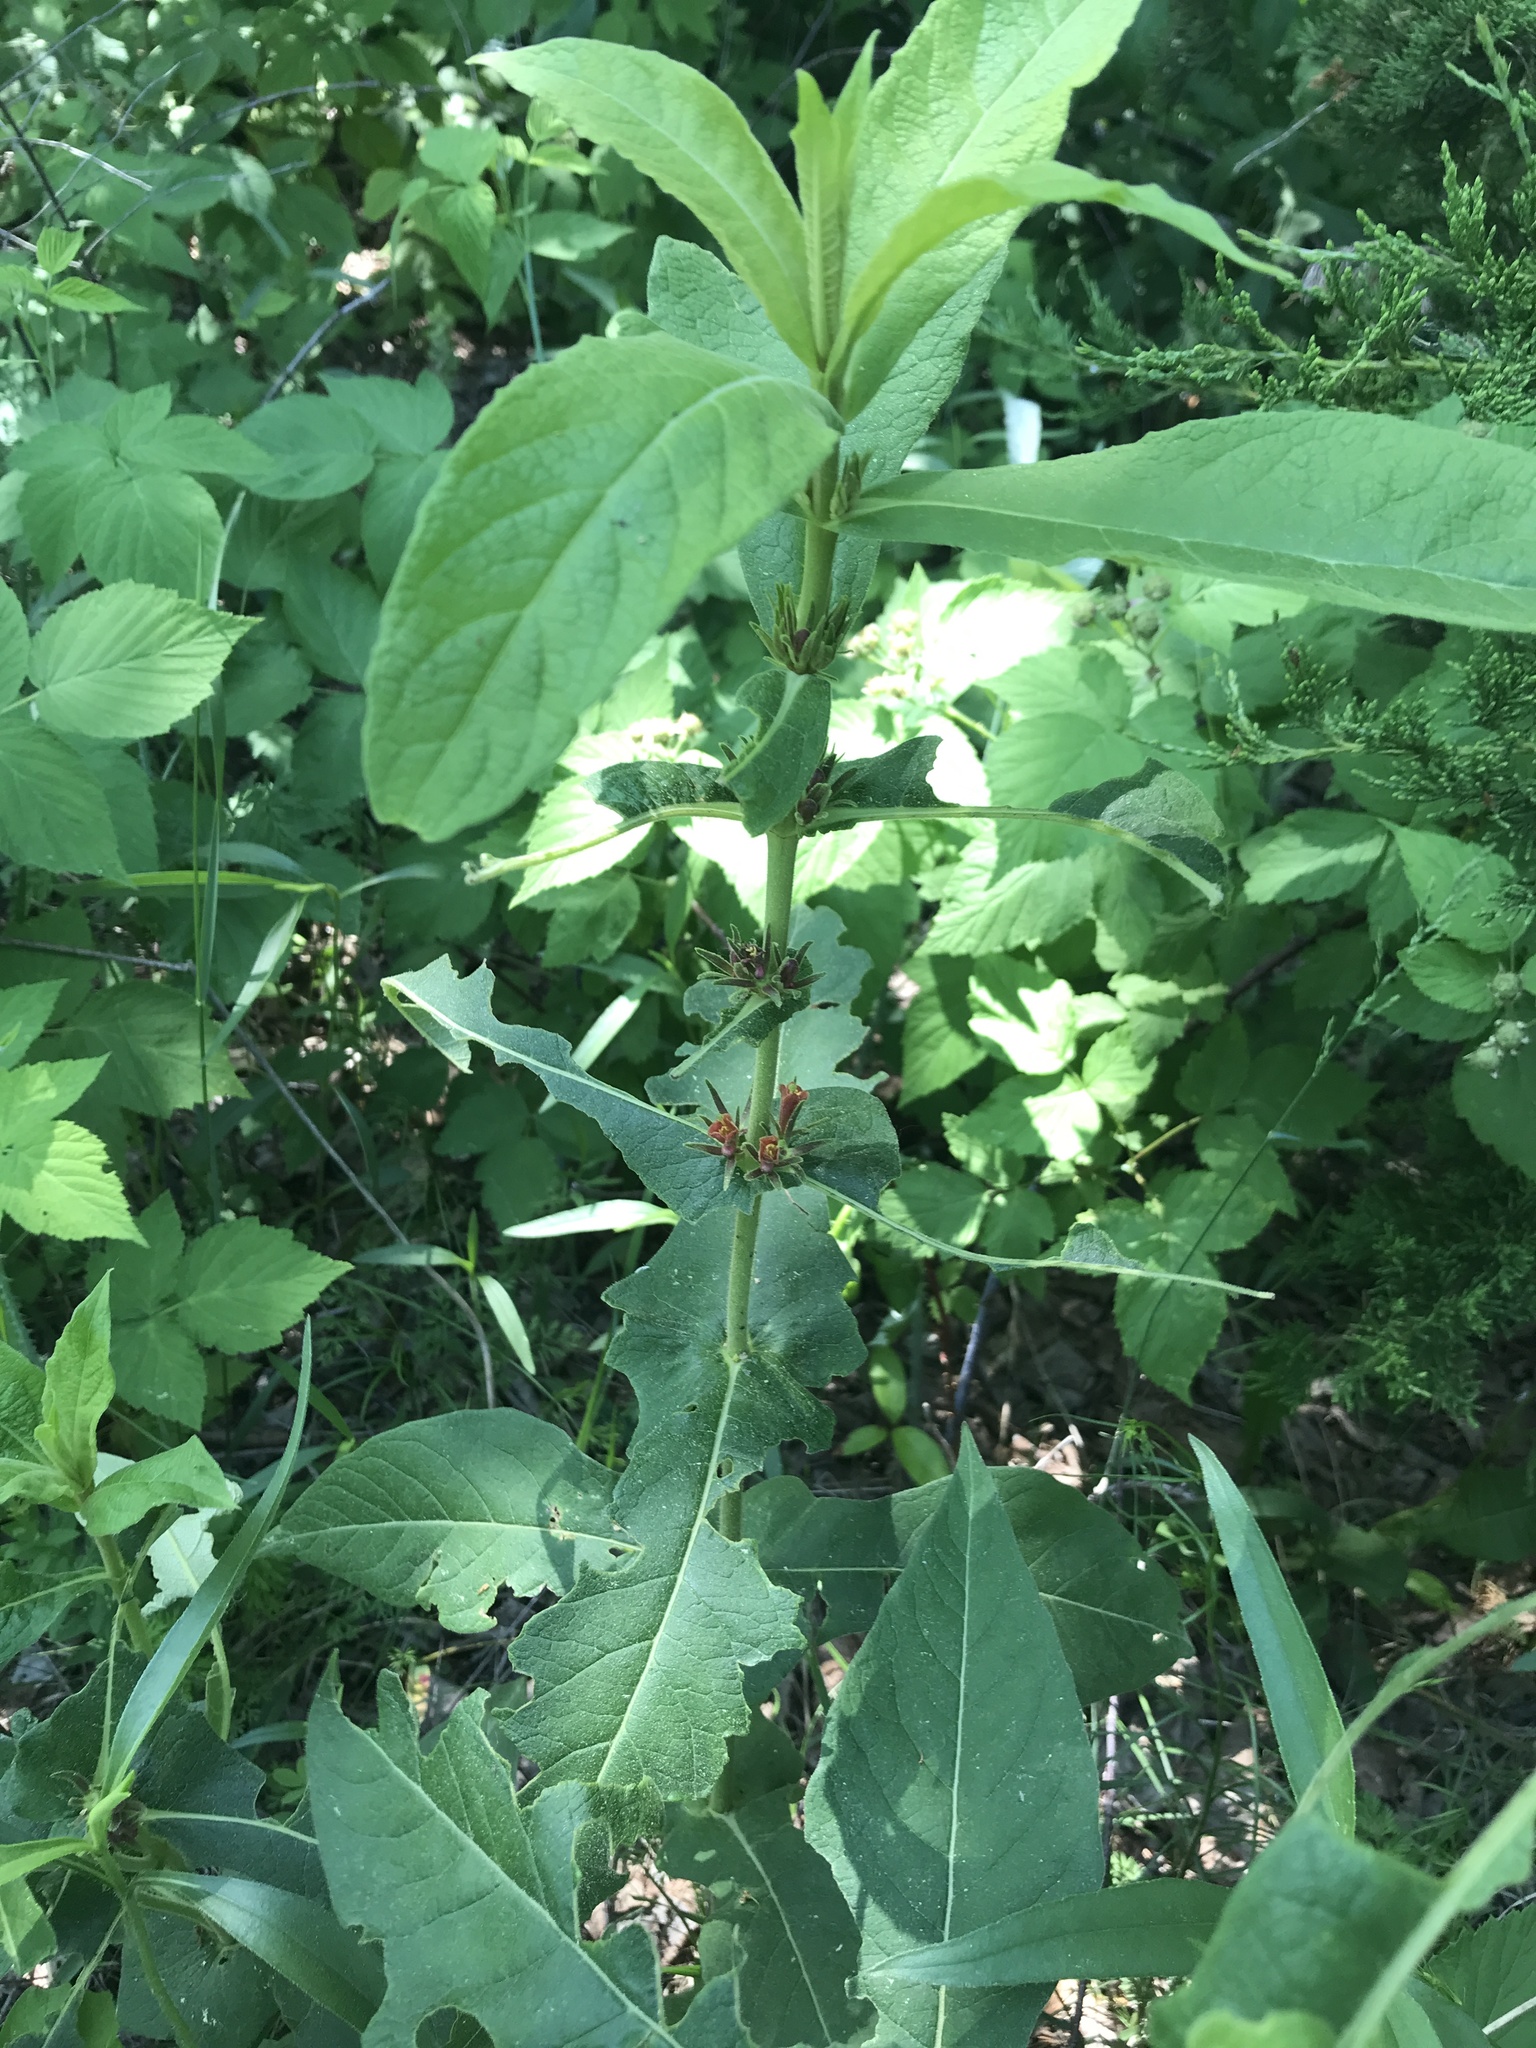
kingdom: Plantae
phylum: Tracheophyta
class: Magnoliopsida
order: Dipsacales
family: Caprifoliaceae
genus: Triosteum
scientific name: Triosteum perfoliatum
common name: Common horse-gentian
